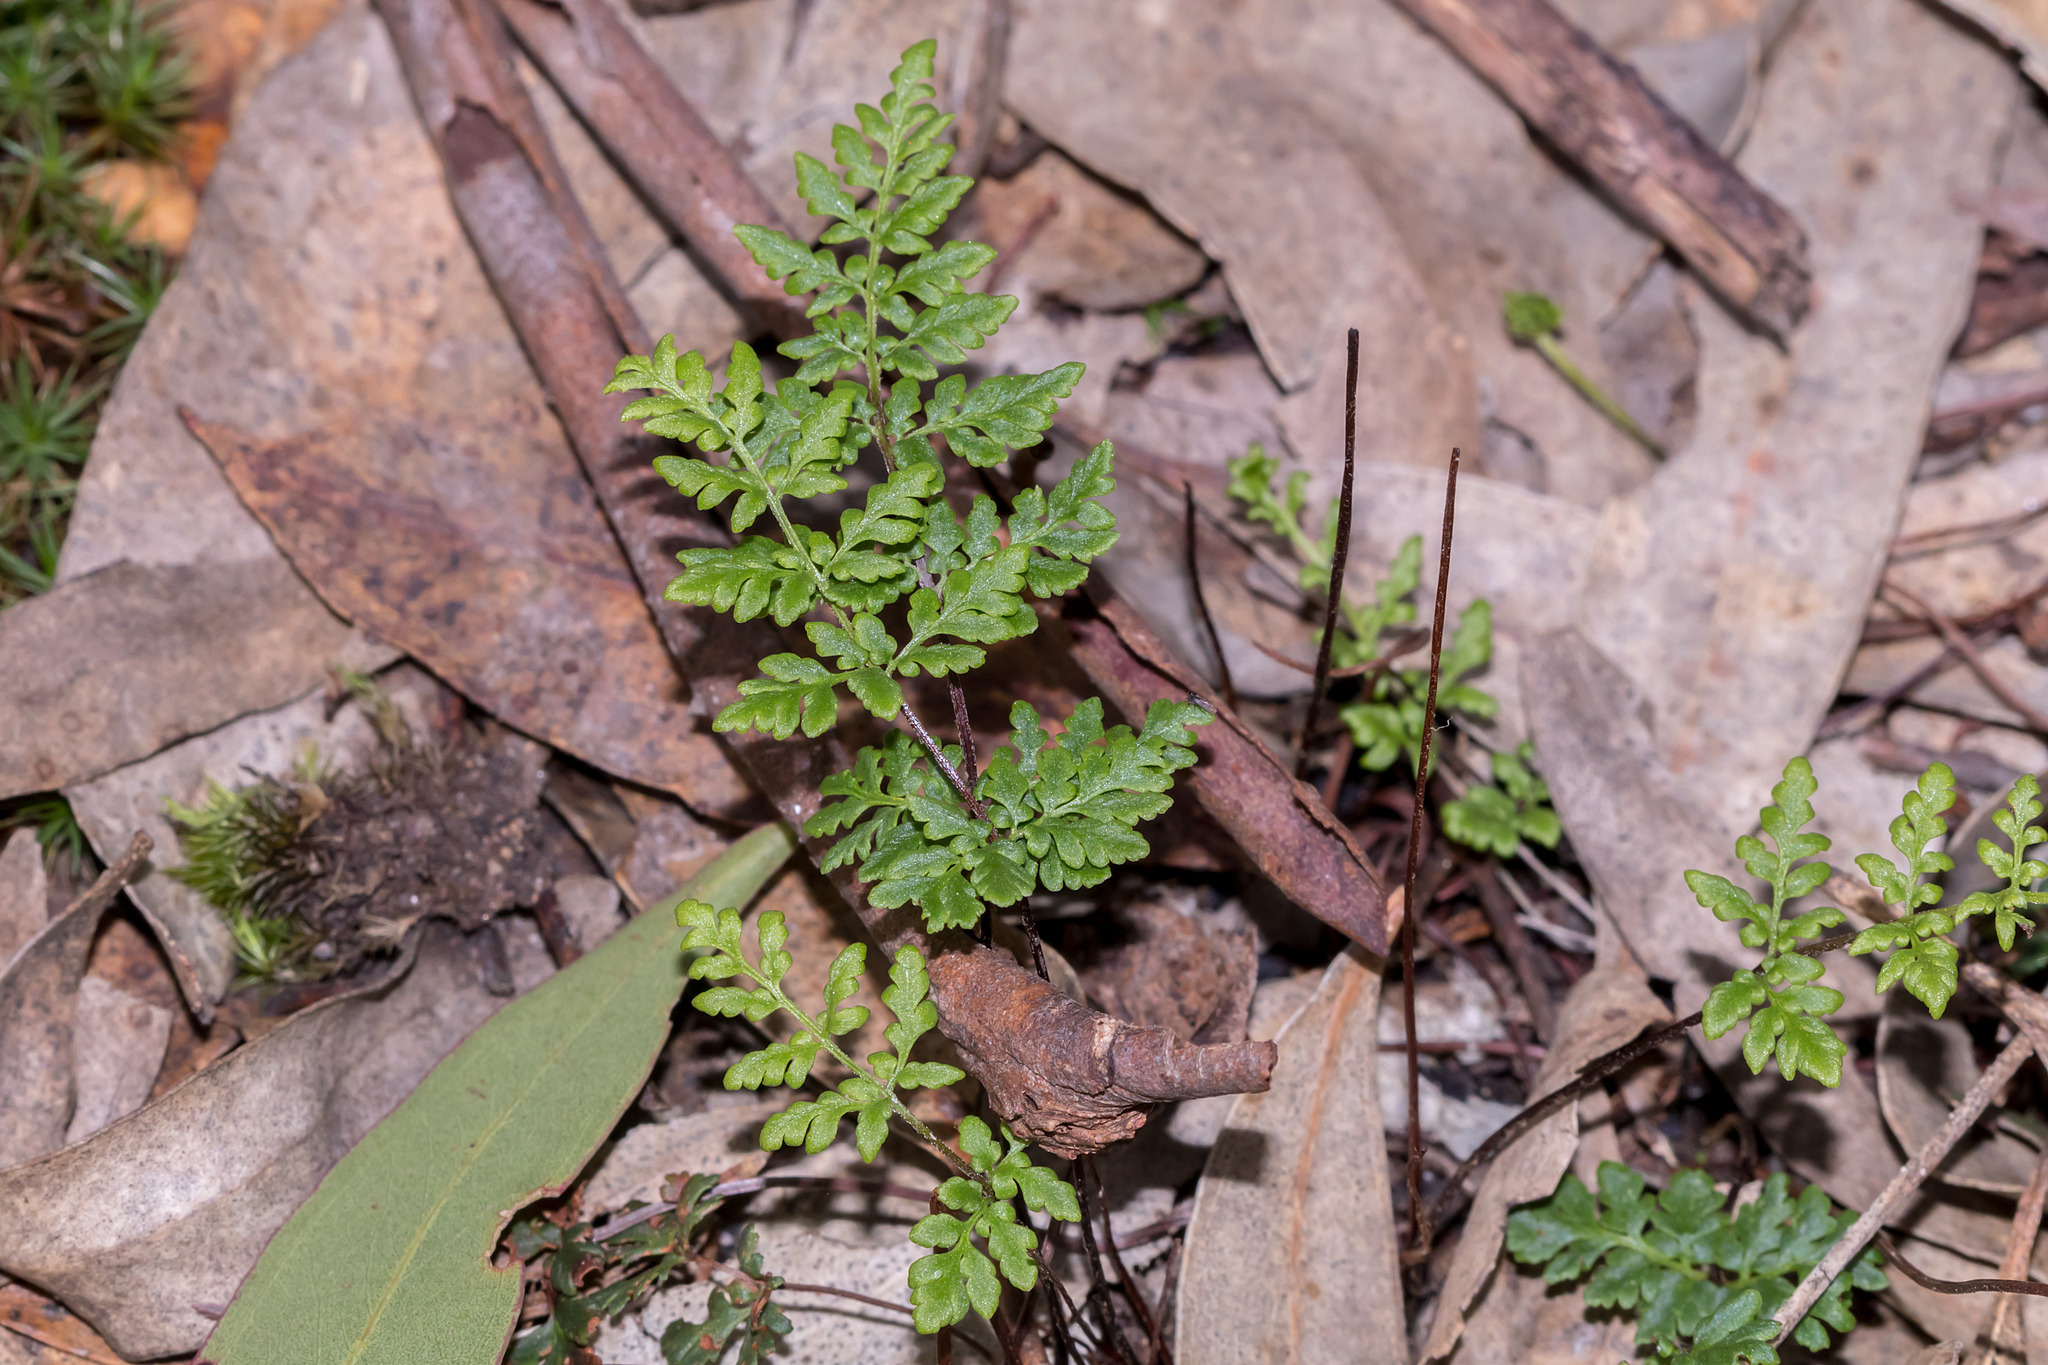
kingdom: Plantae
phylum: Tracheophyta
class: Polypodiopsida
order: Polypodiales
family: Pteridaceae
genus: Cheilanthes
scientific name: Cheilanthes austrotenuifolia
